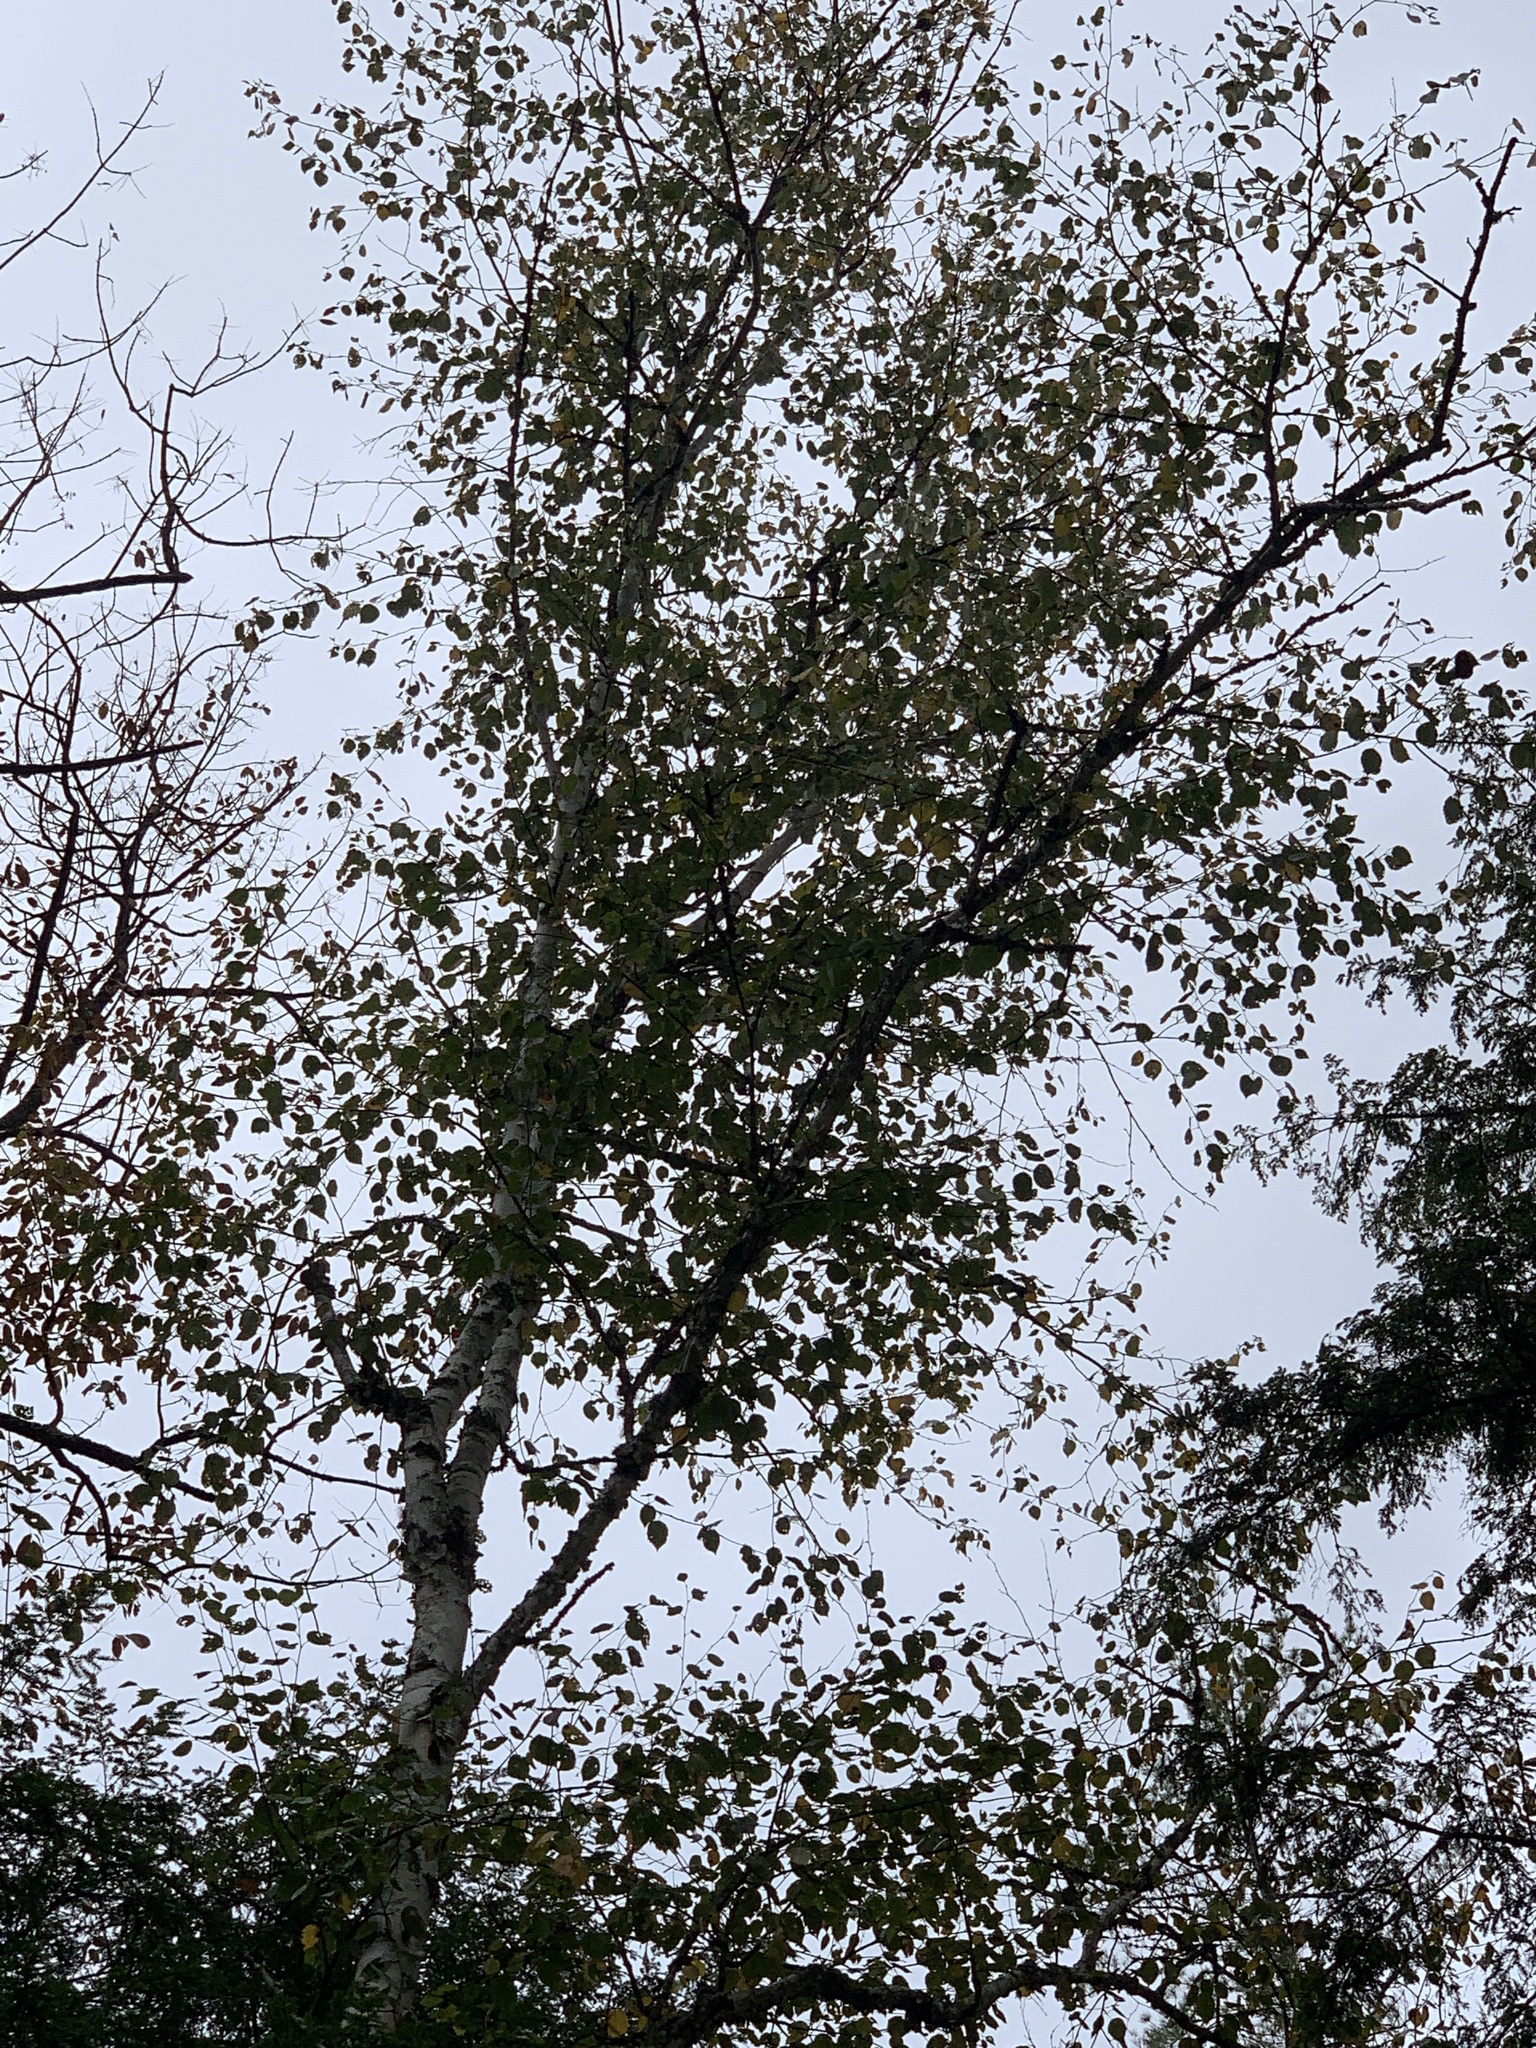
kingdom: Plantae
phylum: Tracheophyta
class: Magnoliopsida
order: Fagales
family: Betulaceae
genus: Betula
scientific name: Betula papyrifera
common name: Paper birch
